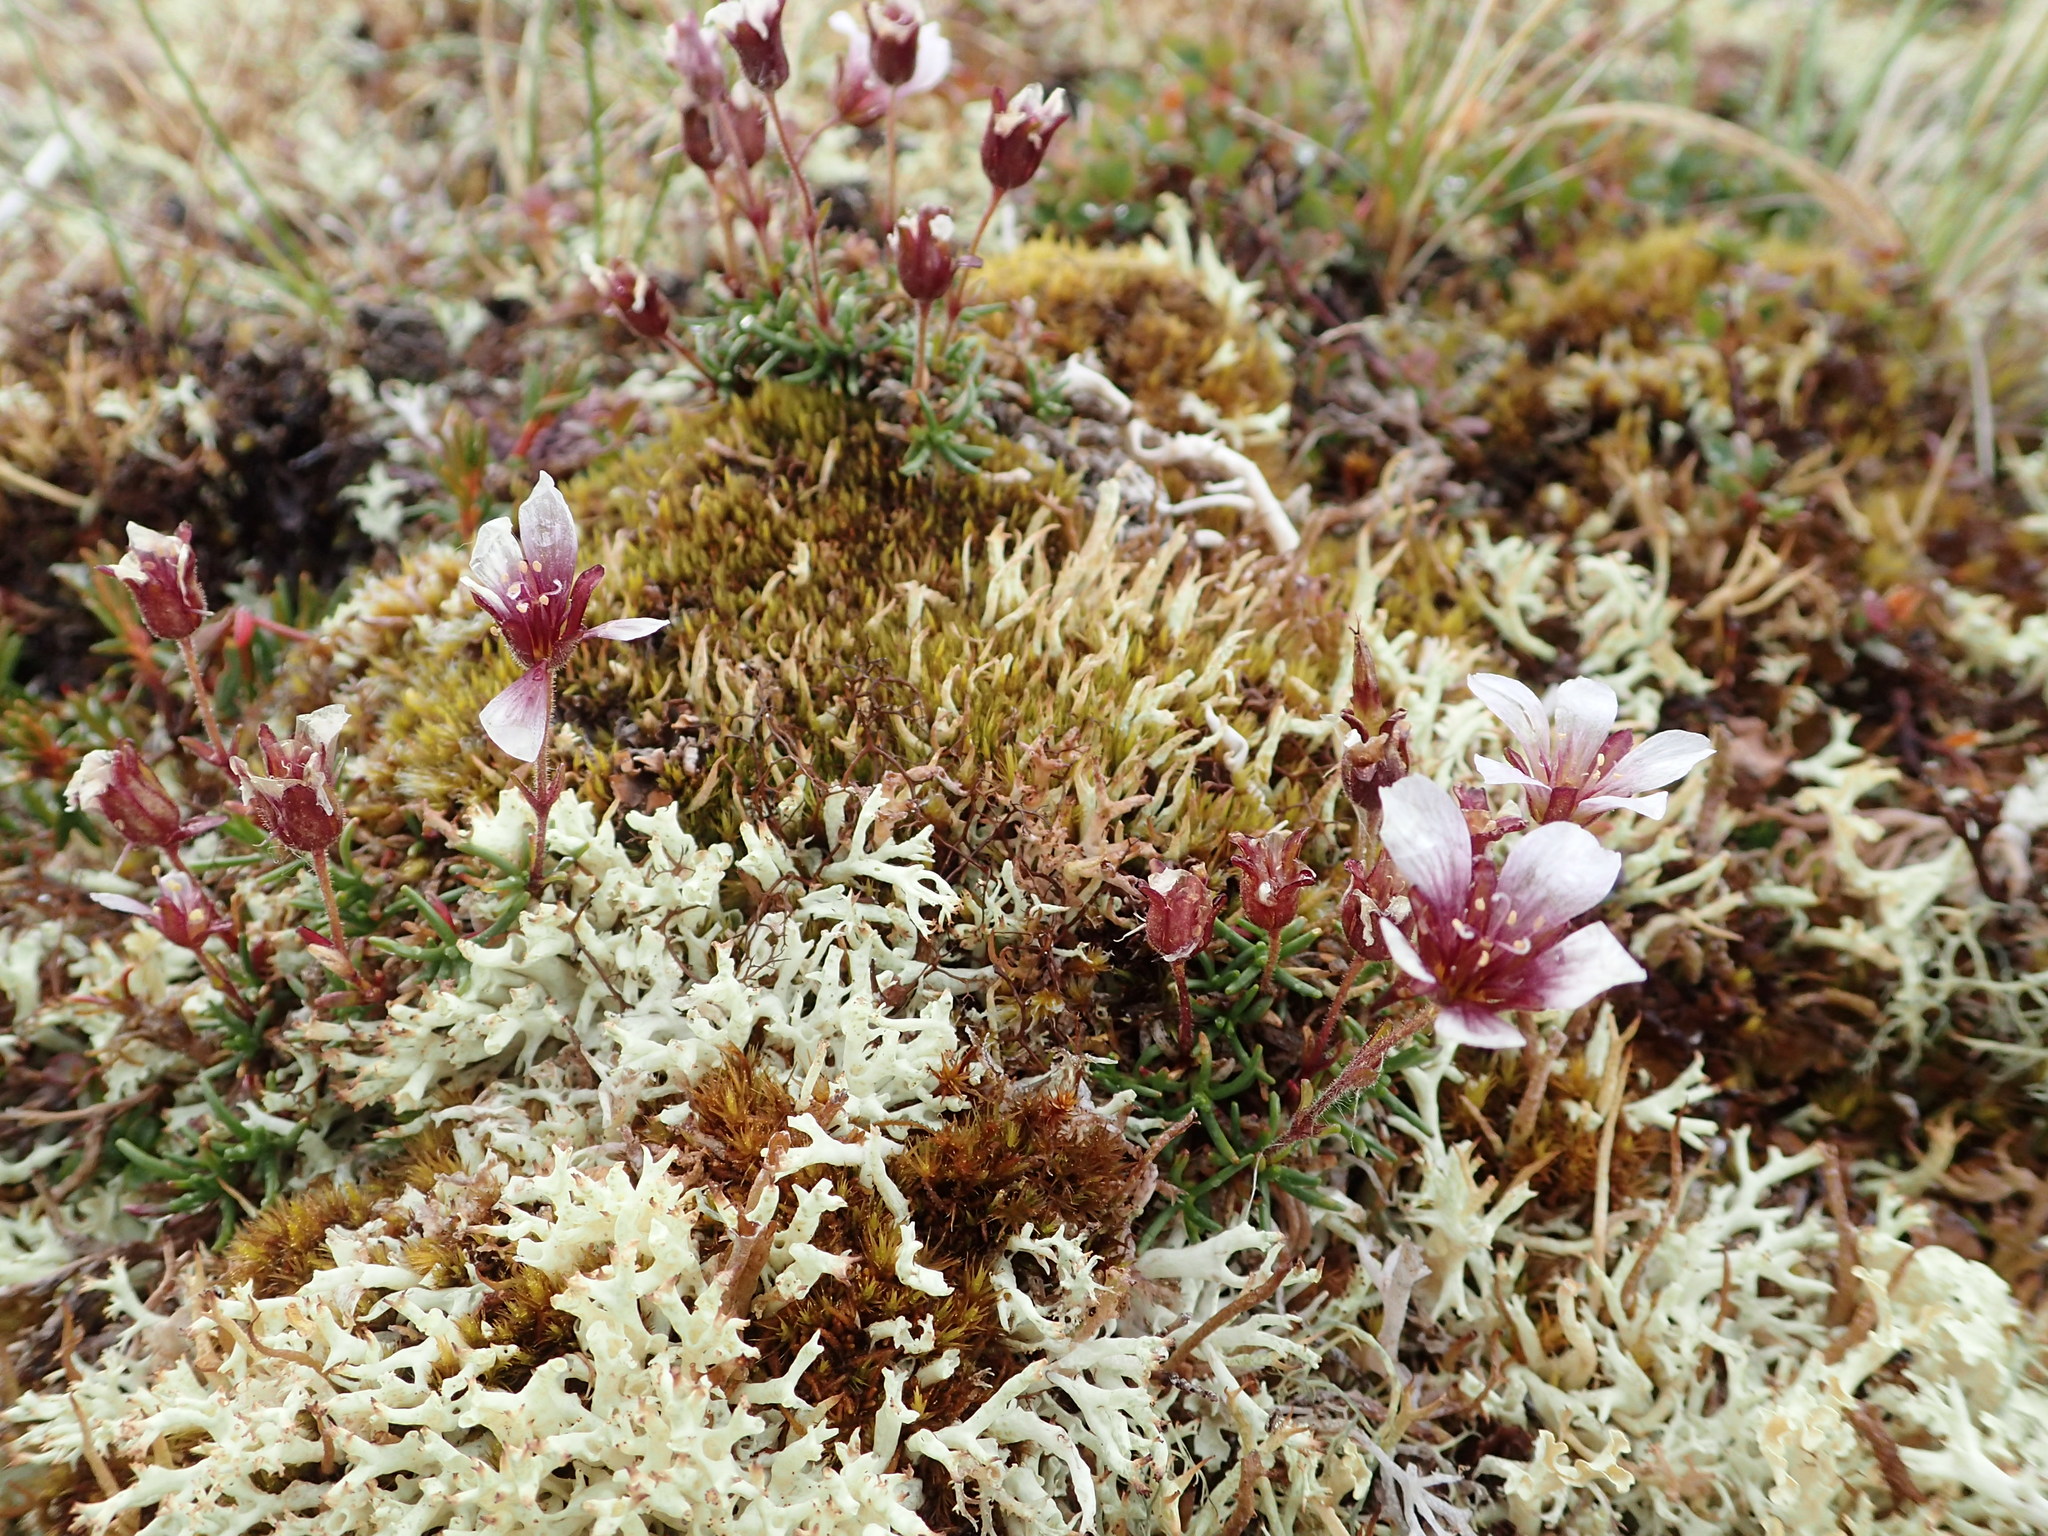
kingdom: Plantae
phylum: Tracheophyta
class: Magnoliopsida
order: Caryophyllales
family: Caryophyllaceae
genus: Cherleria
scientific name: Cherleria arctica
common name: Arctic sandwort
